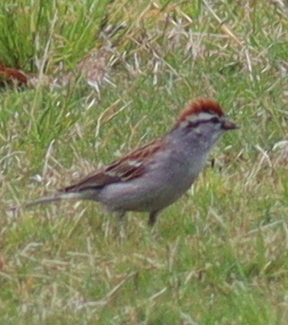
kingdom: Animalia
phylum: Chordata
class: Aves
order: Passeriformes
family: Passerellidae
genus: Spizella
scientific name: Spizella passerina
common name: Chipping sparrow
